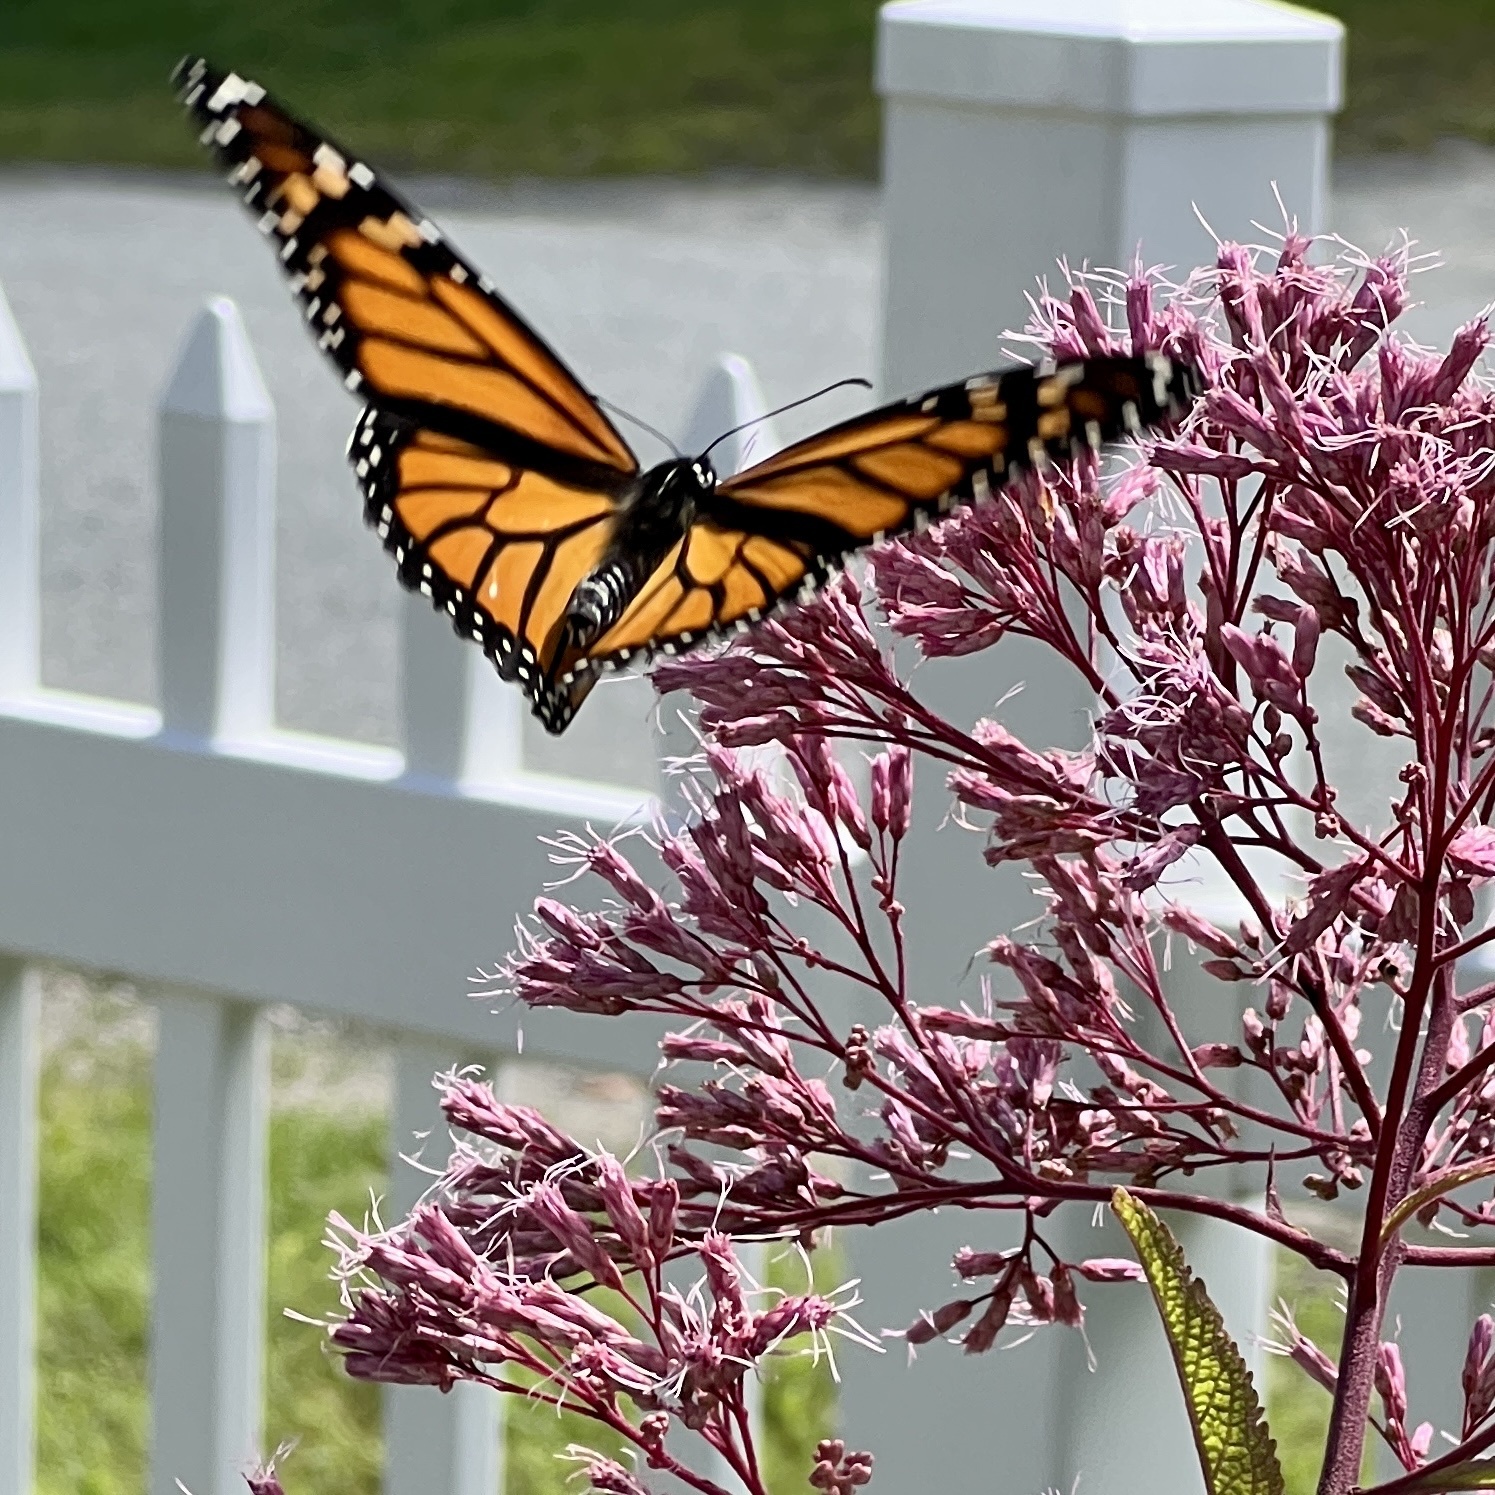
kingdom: Animalia
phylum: Arthropoda
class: Insecta
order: Lepidoptera
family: Nymphalidae
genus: Danaus
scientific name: Danaus plexippus
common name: Monarch
